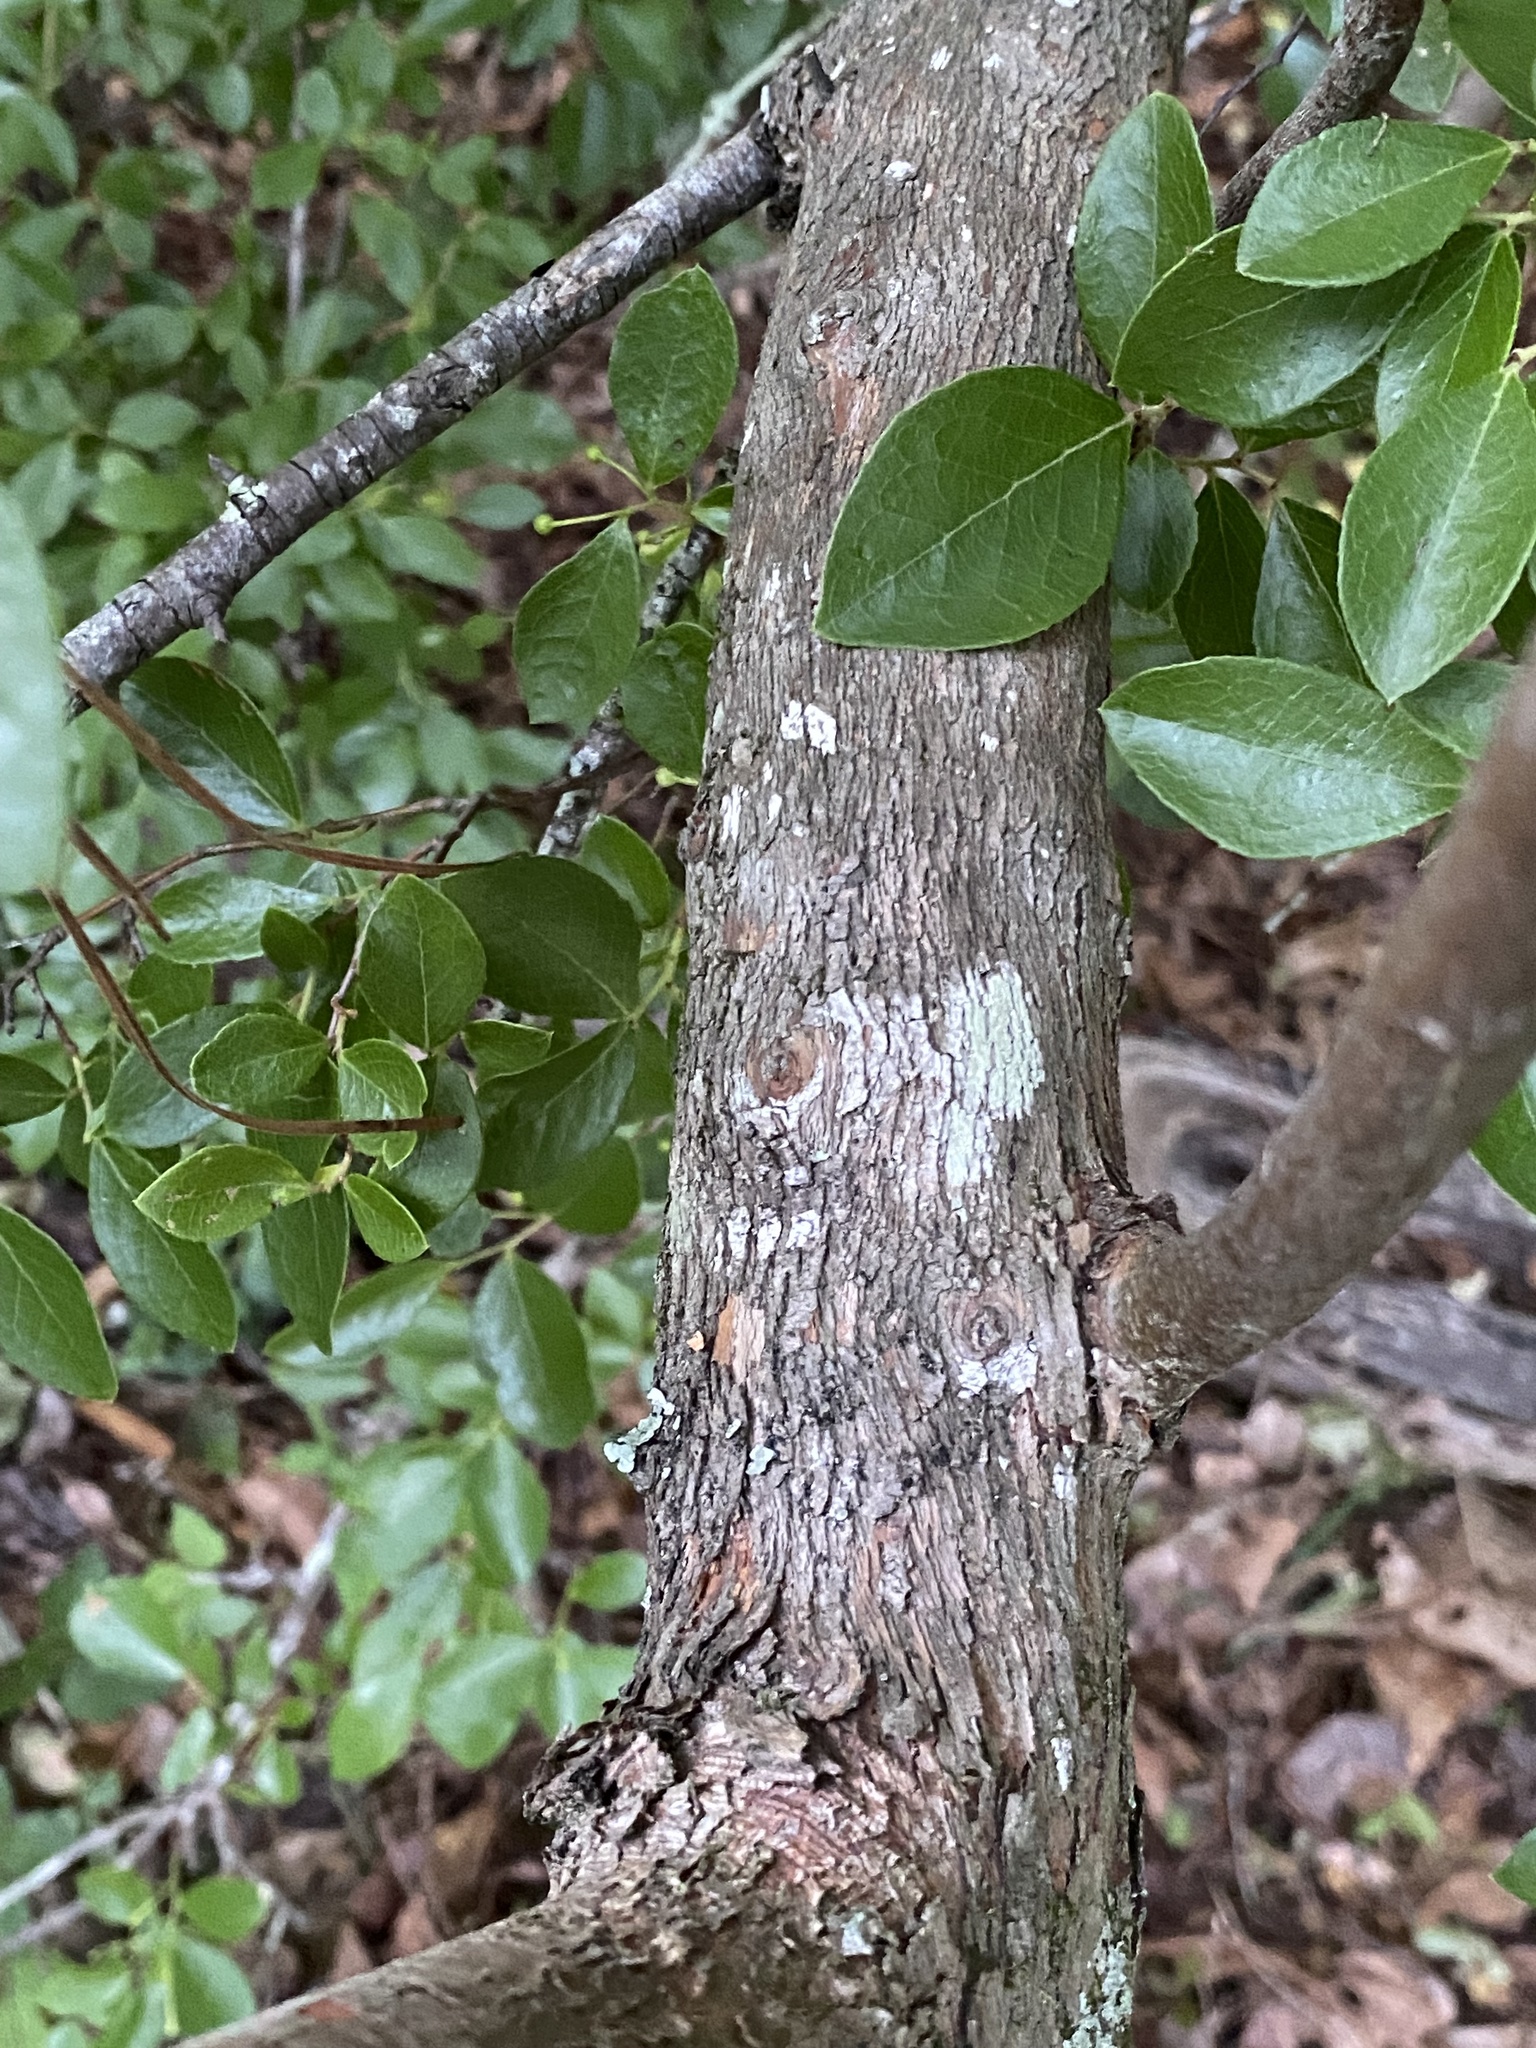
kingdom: Plantae
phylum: Tracheophyta
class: Magnoliopsida
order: Ericales
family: Ericaceae
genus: Vaccinium
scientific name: Vaccinium arboreum
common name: Farkleberry
